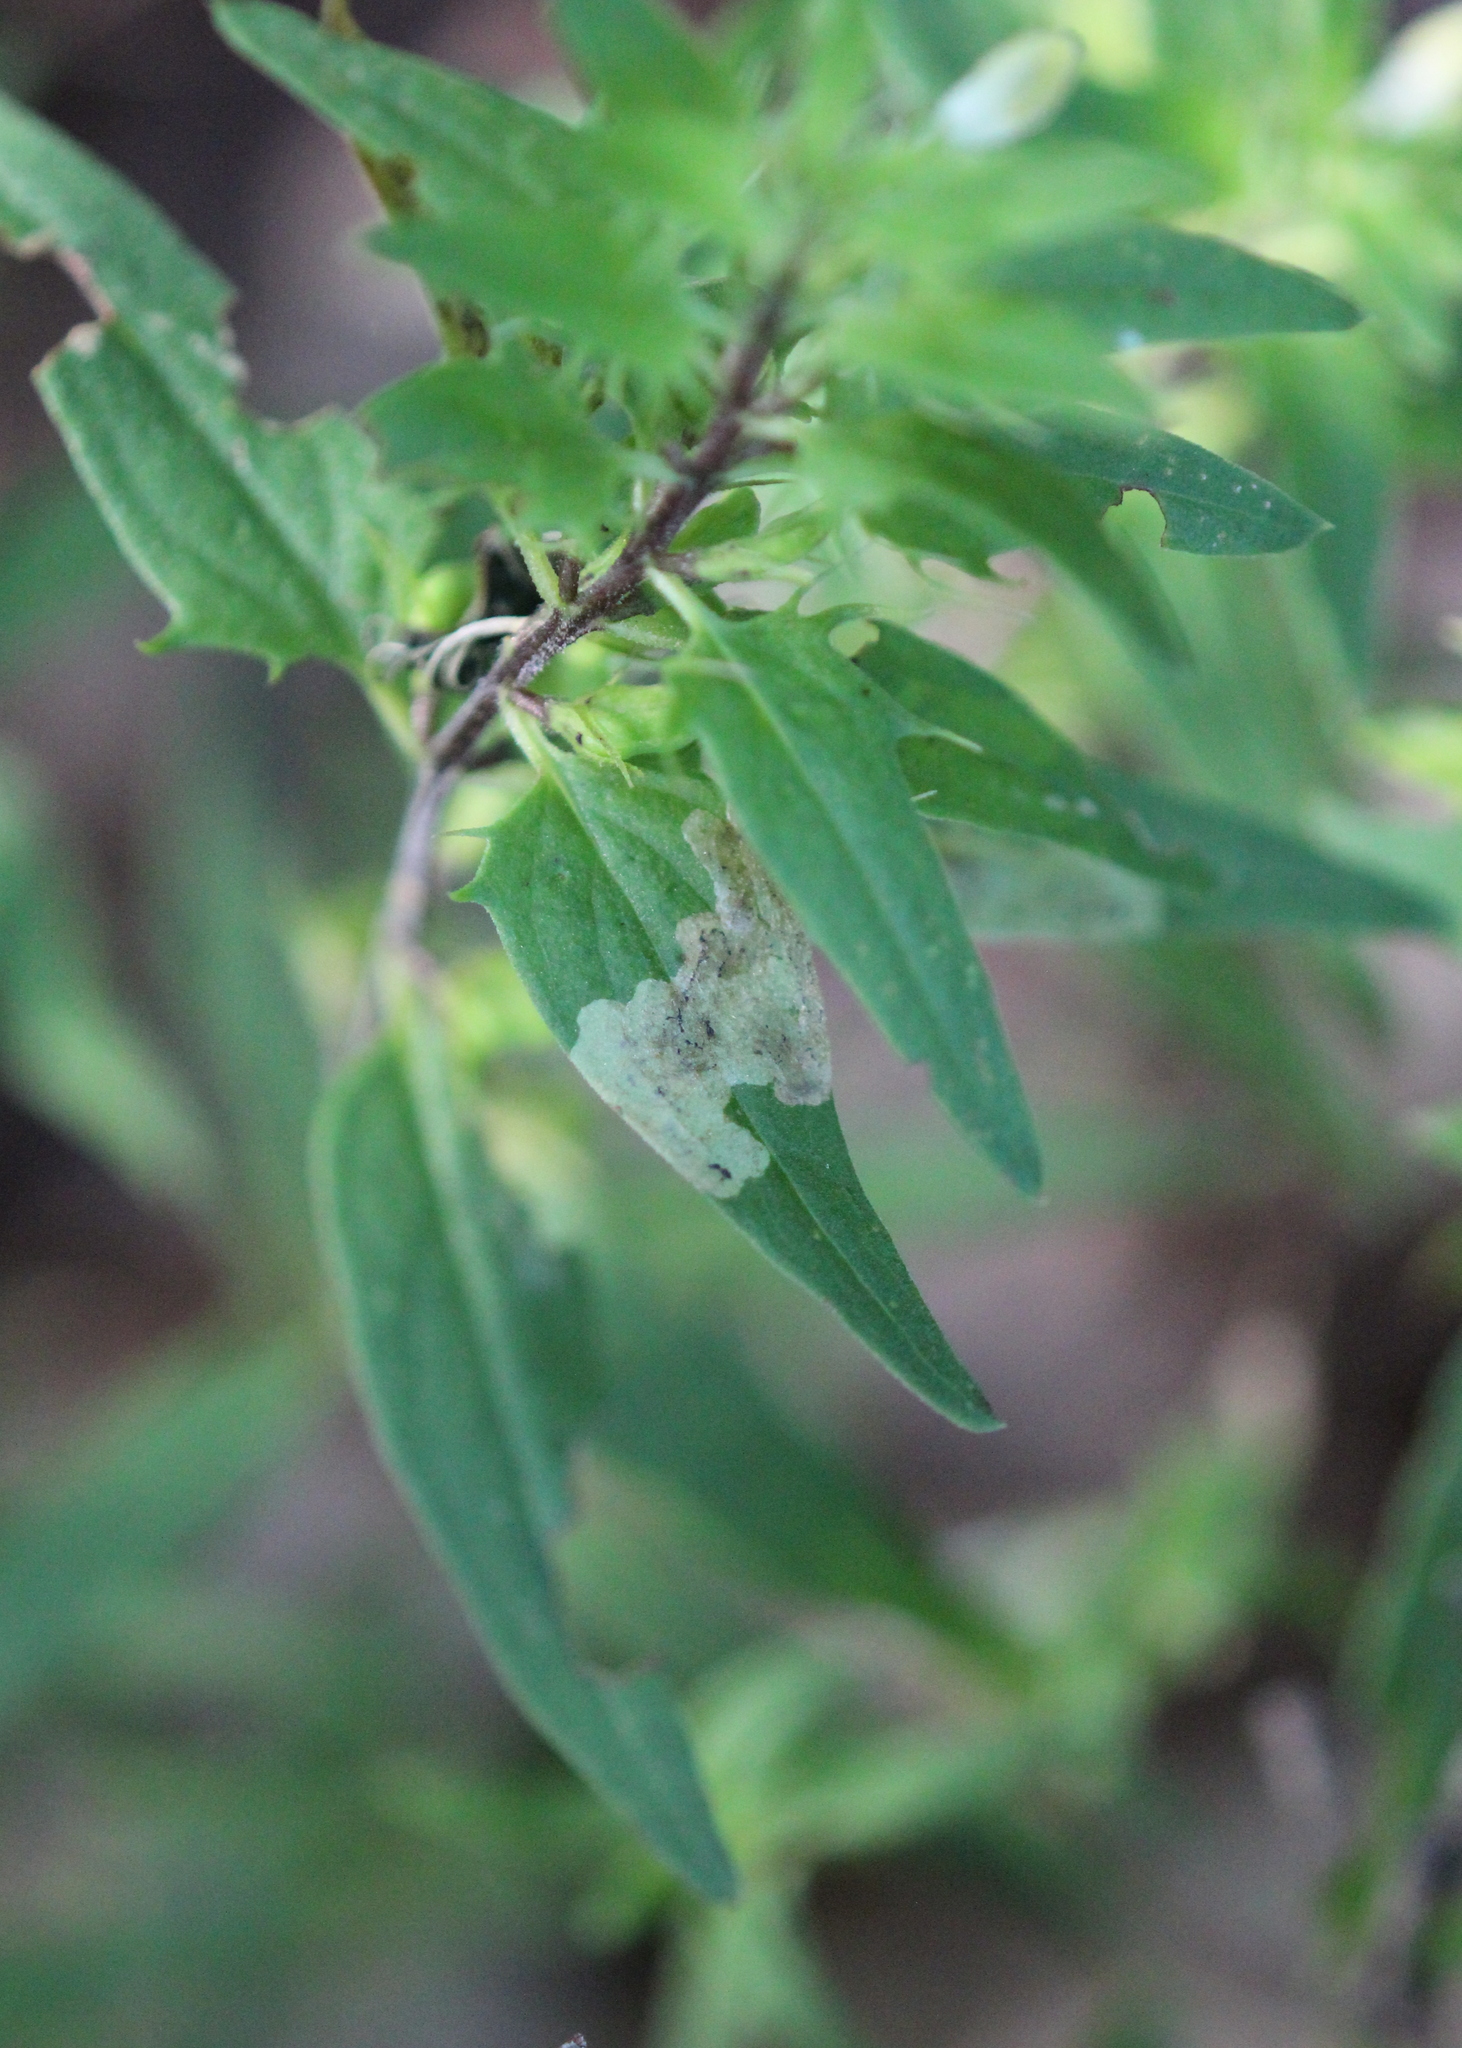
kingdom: Animalia
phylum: Arthropoda
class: Insecta
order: Diptera
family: Agromyzidae
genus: Liriomyza
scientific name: Liriomyza pistilla
